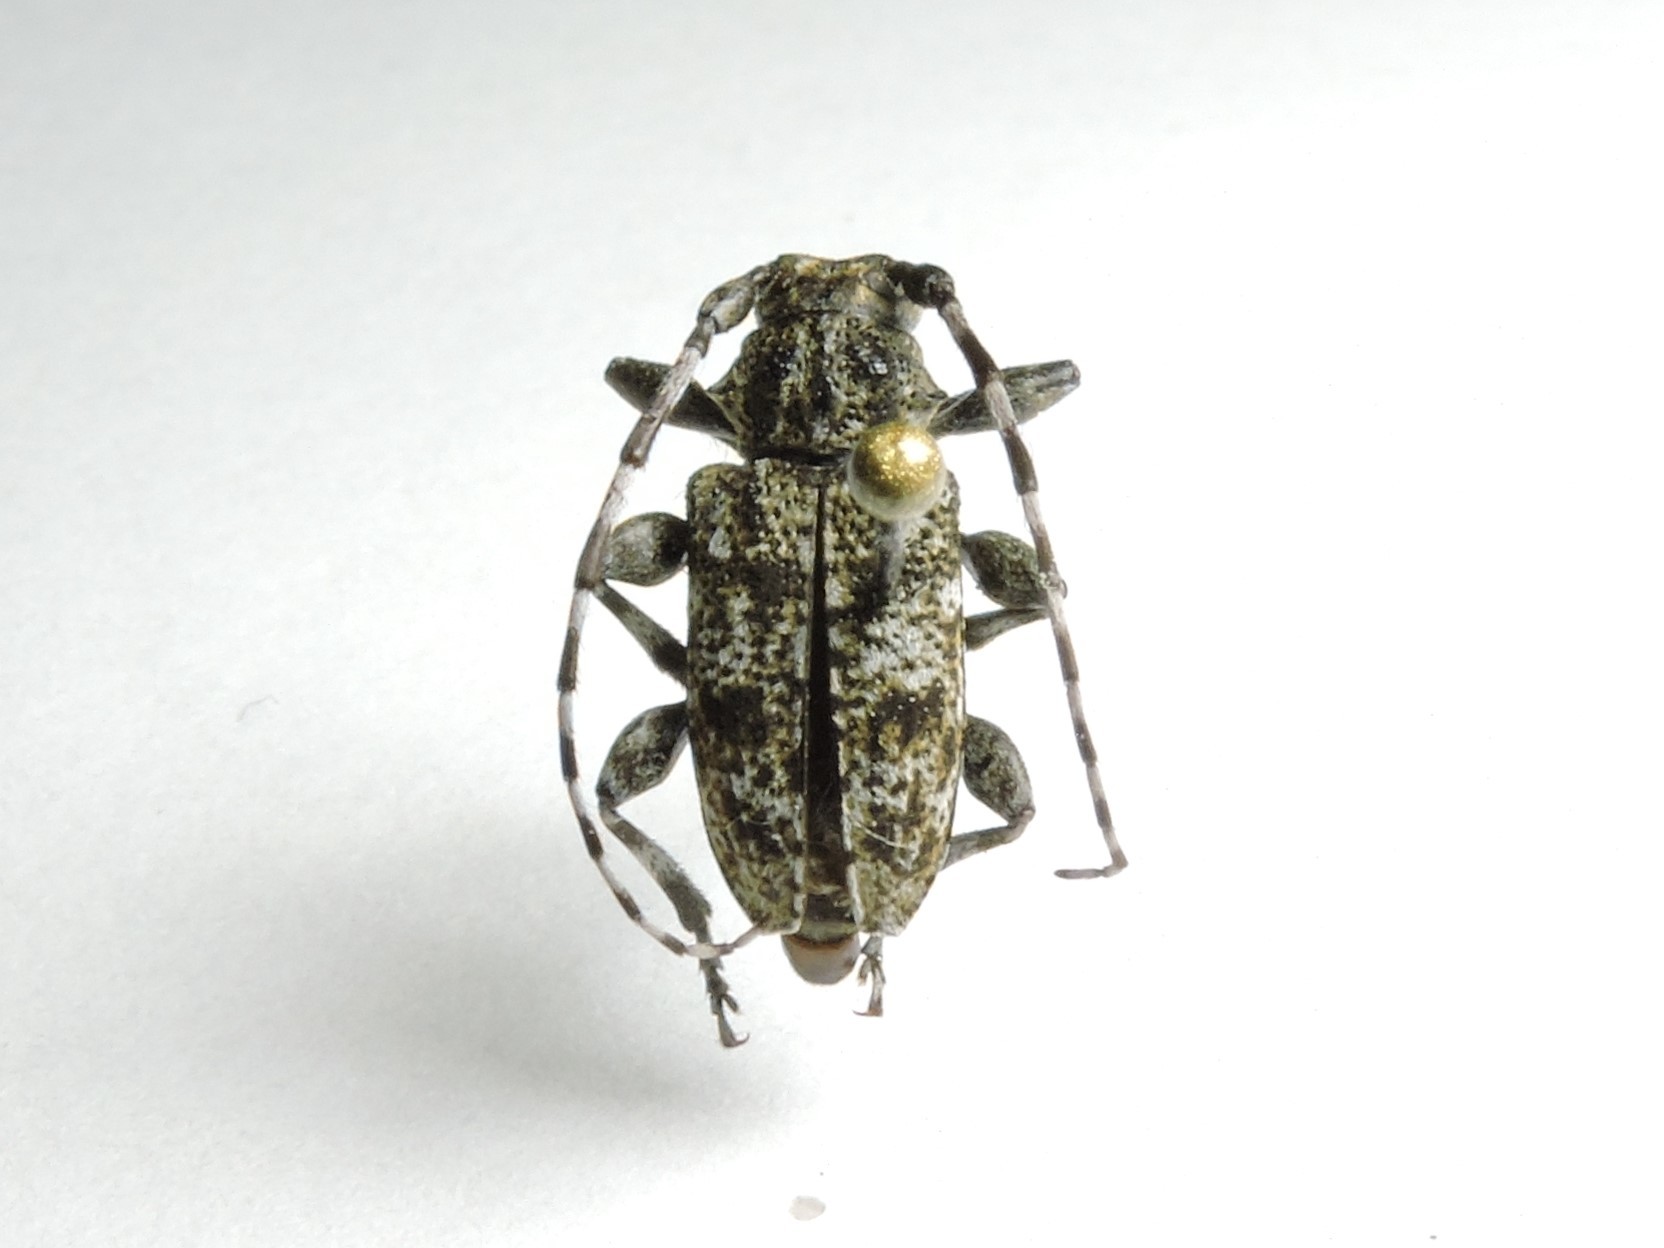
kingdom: Animalia
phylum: Arthropoda
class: Insecta
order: Coleoptera
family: Cerambycidae
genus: Aegomorphus
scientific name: Aegomorphus clavipes
